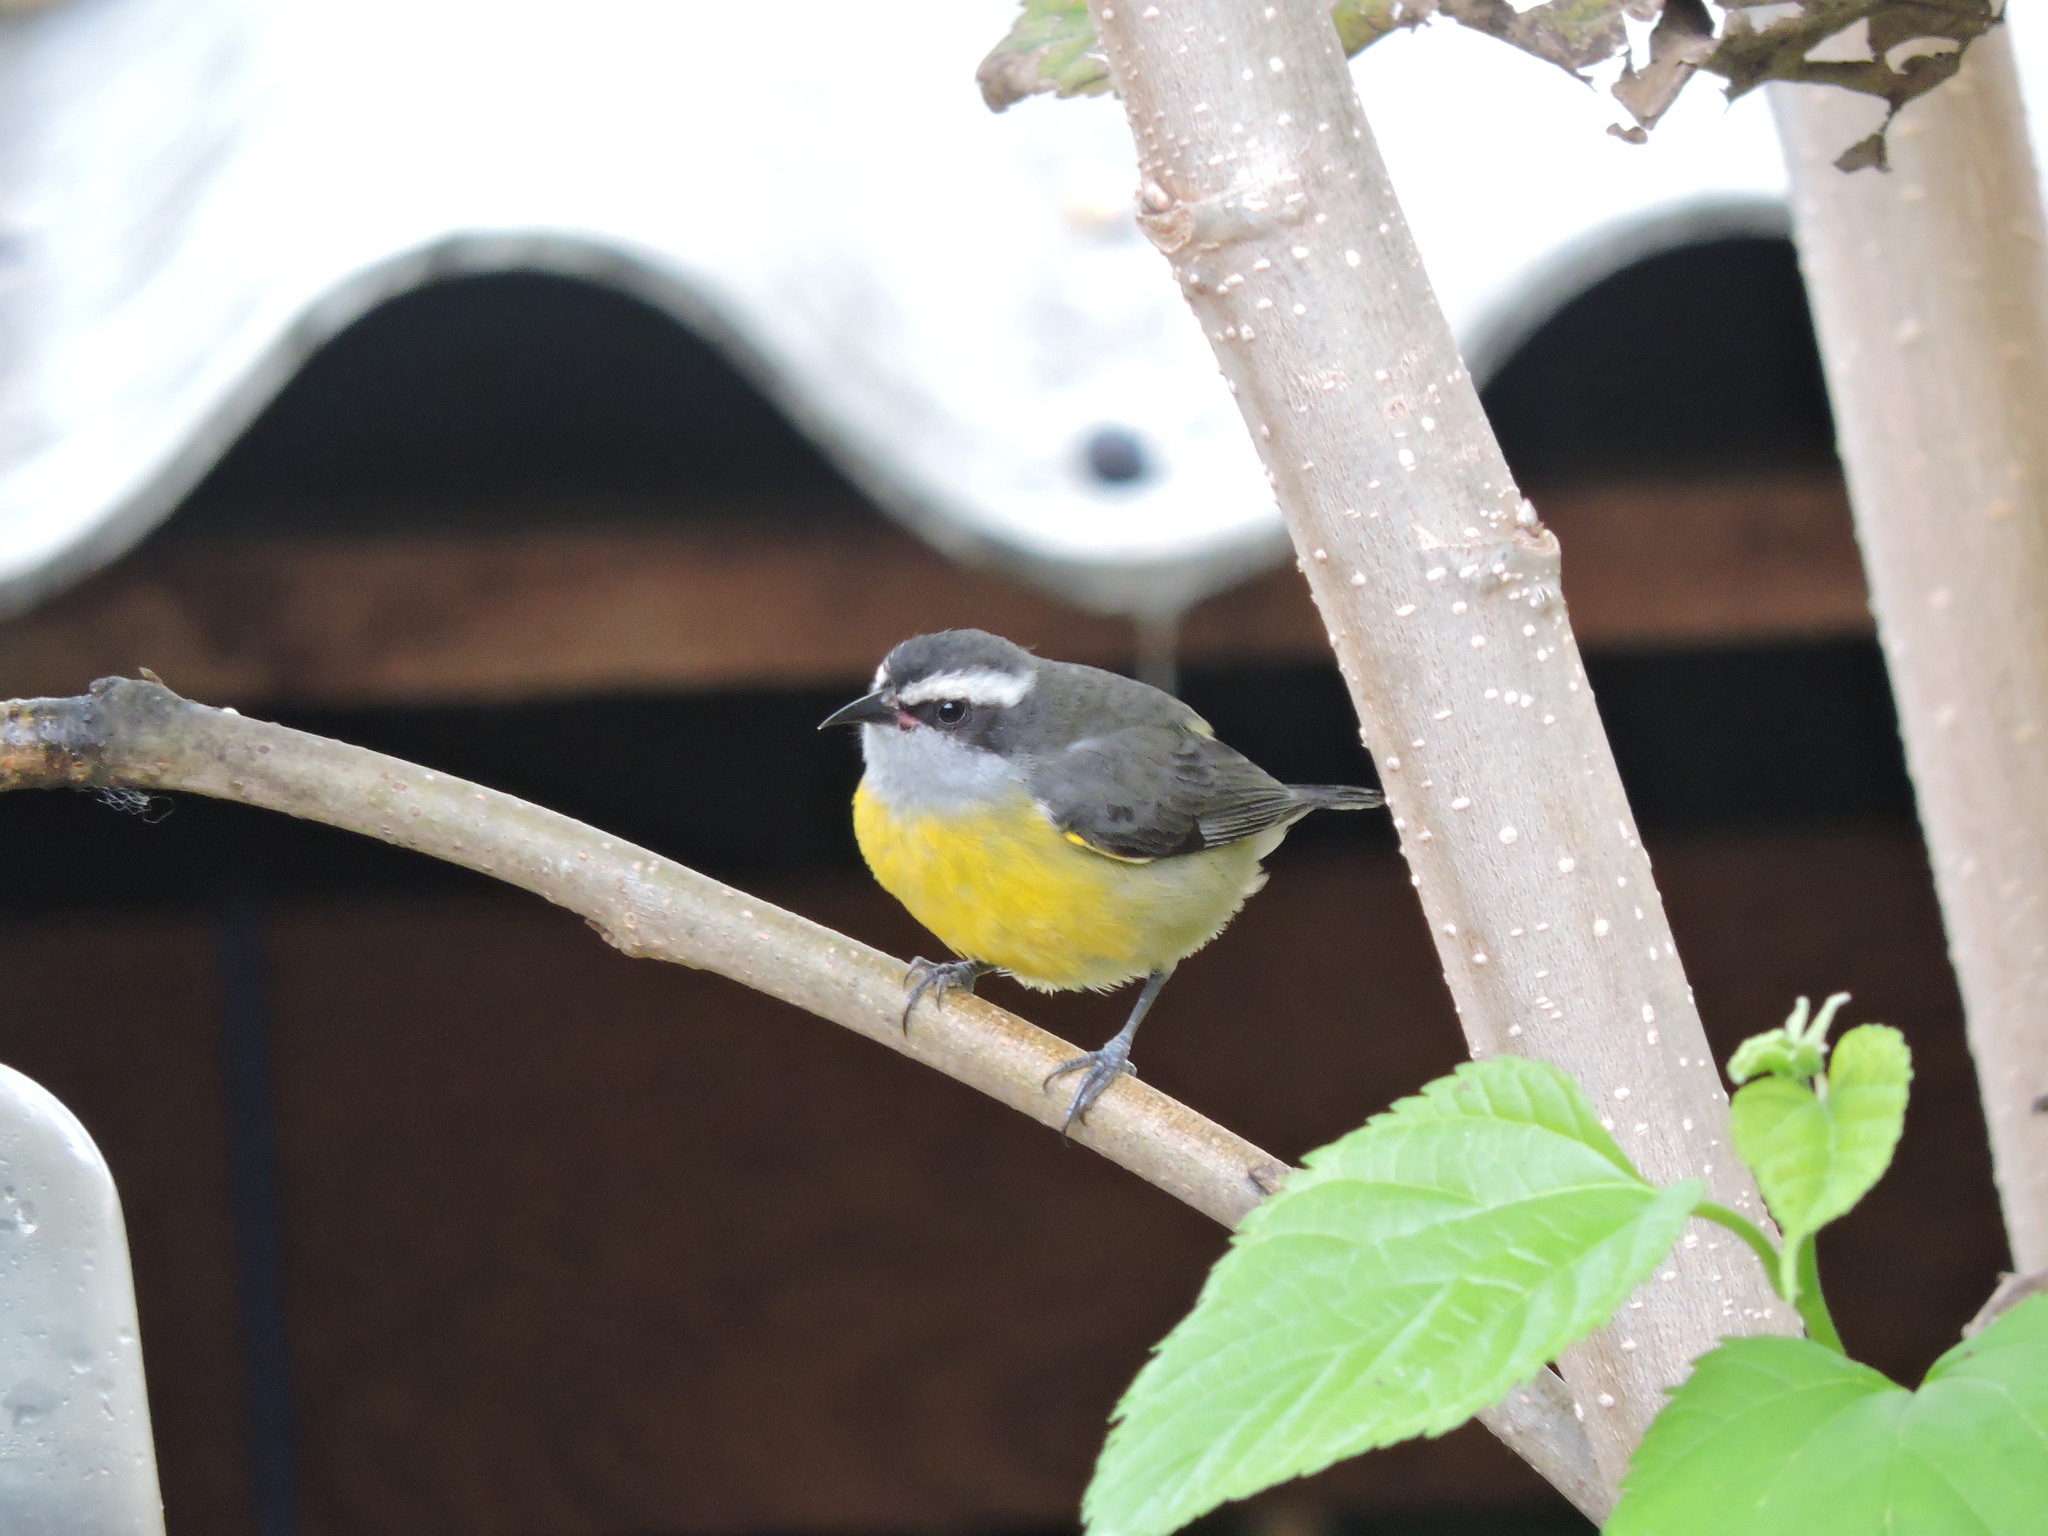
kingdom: Animalia
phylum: Chordata
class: Aves
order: Passeriformes
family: Thraupidae
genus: Coereba
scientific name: Coereba flaveola
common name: Bananaquit
